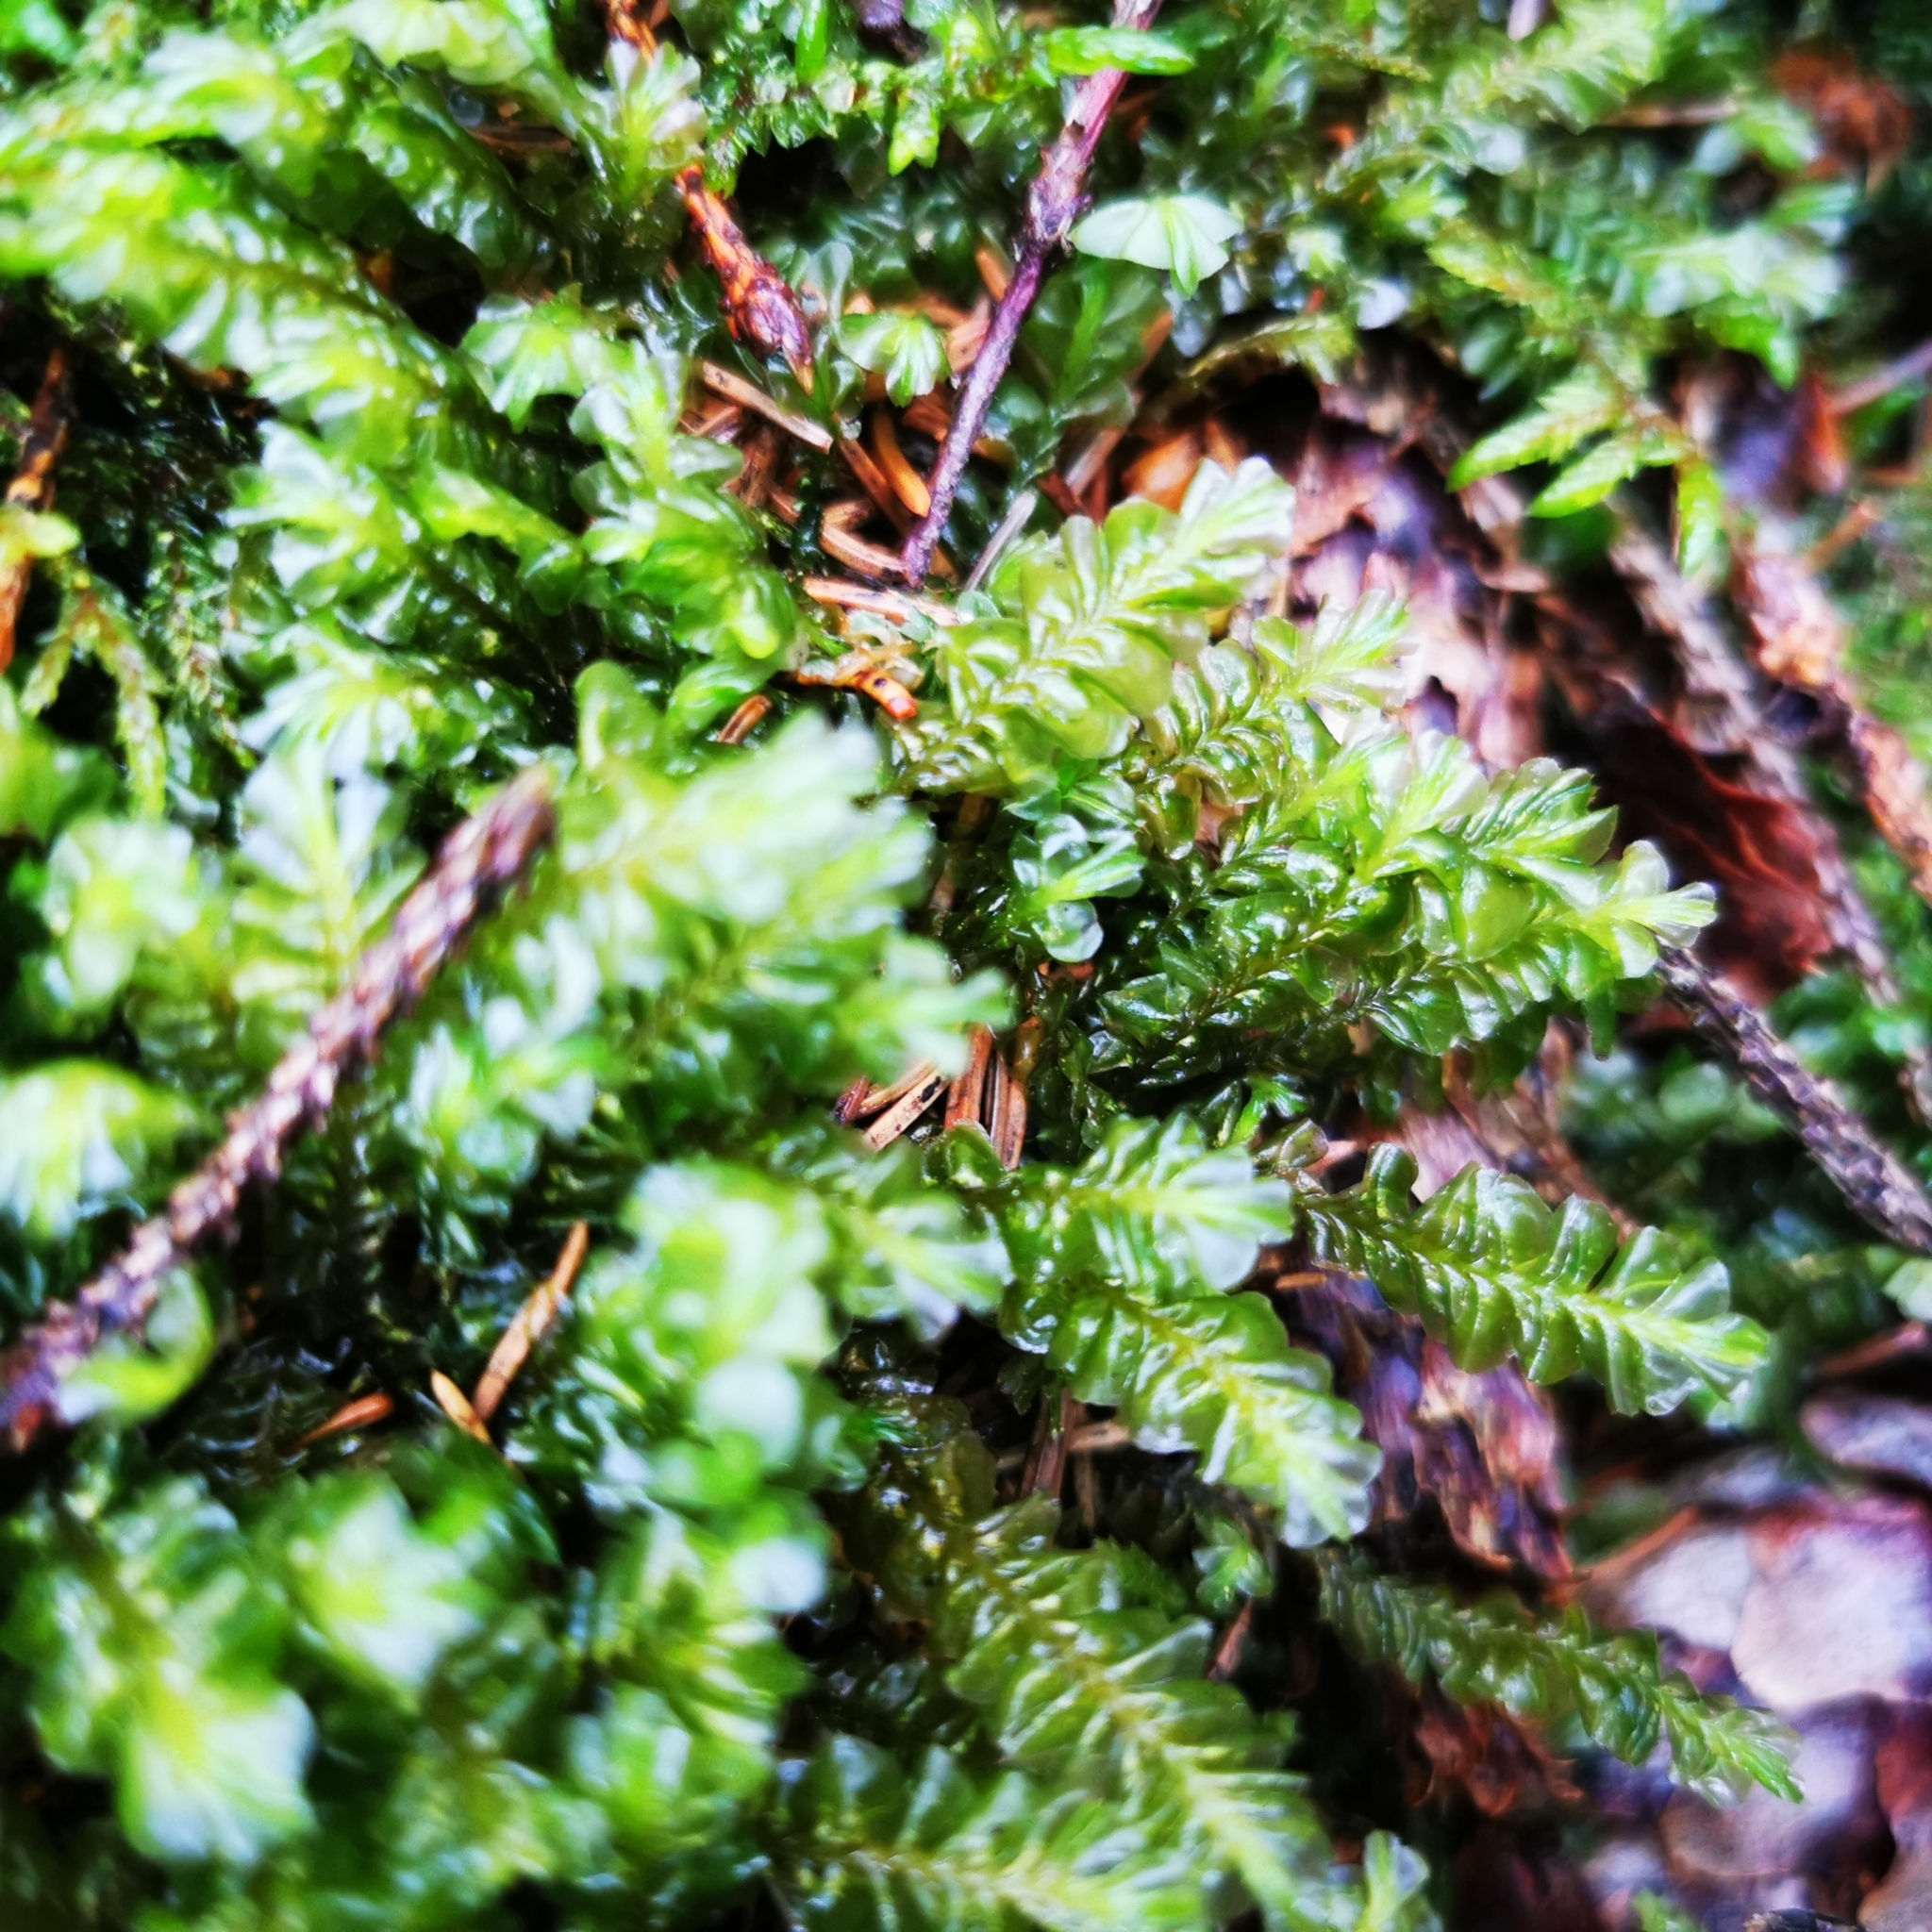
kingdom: Plantae
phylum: Marchantiophyta
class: Jungermanniopsida
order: Jungermanniales
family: Plagiochilaceae
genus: Plagiochila
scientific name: Plagiochila asplenioides
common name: Greater featherwort
